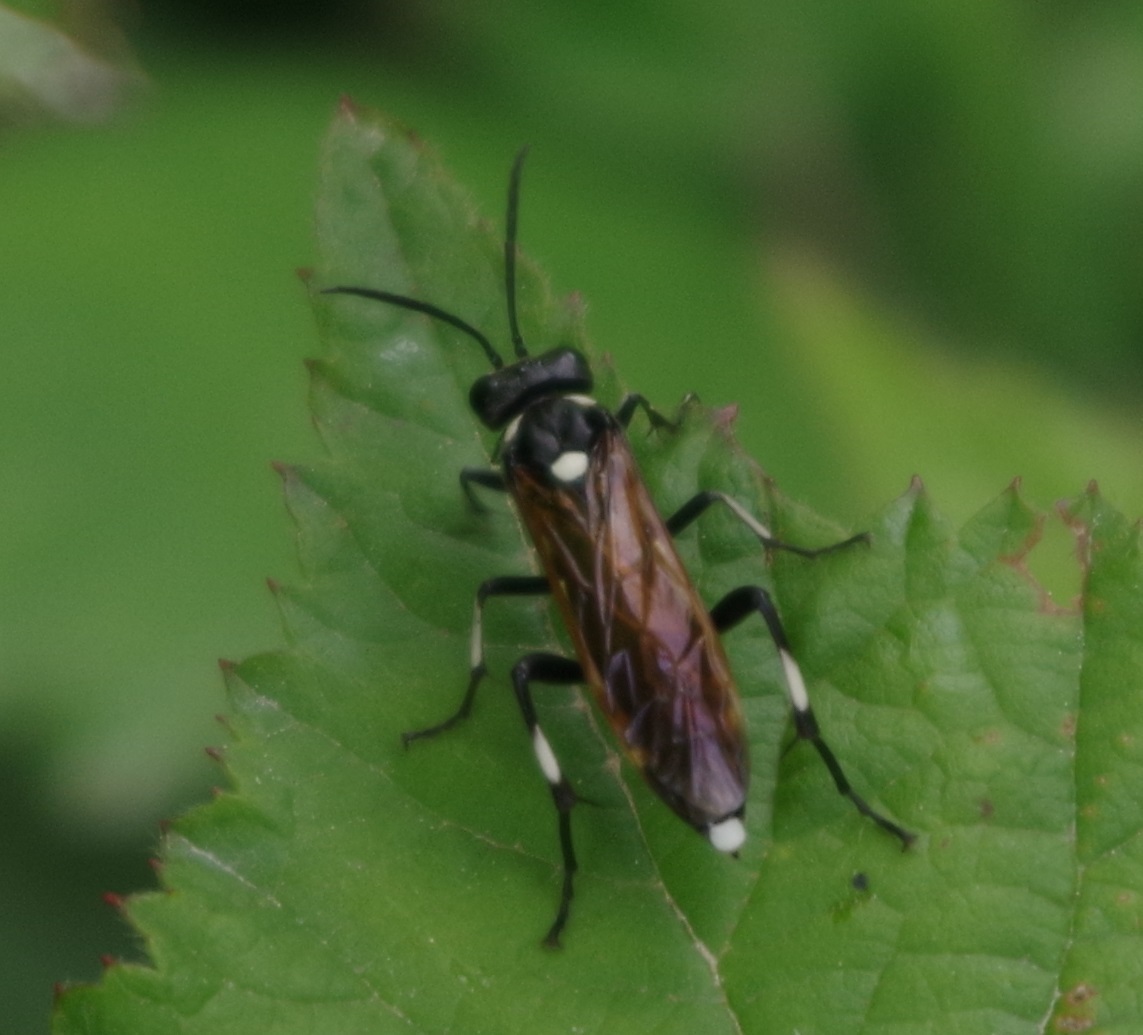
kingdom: Animalia
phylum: Arthropoda
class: Insecta
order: Hymenoptera
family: Tenthredinidae
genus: Macrophya
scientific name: Macrophya duodecimpunctata
